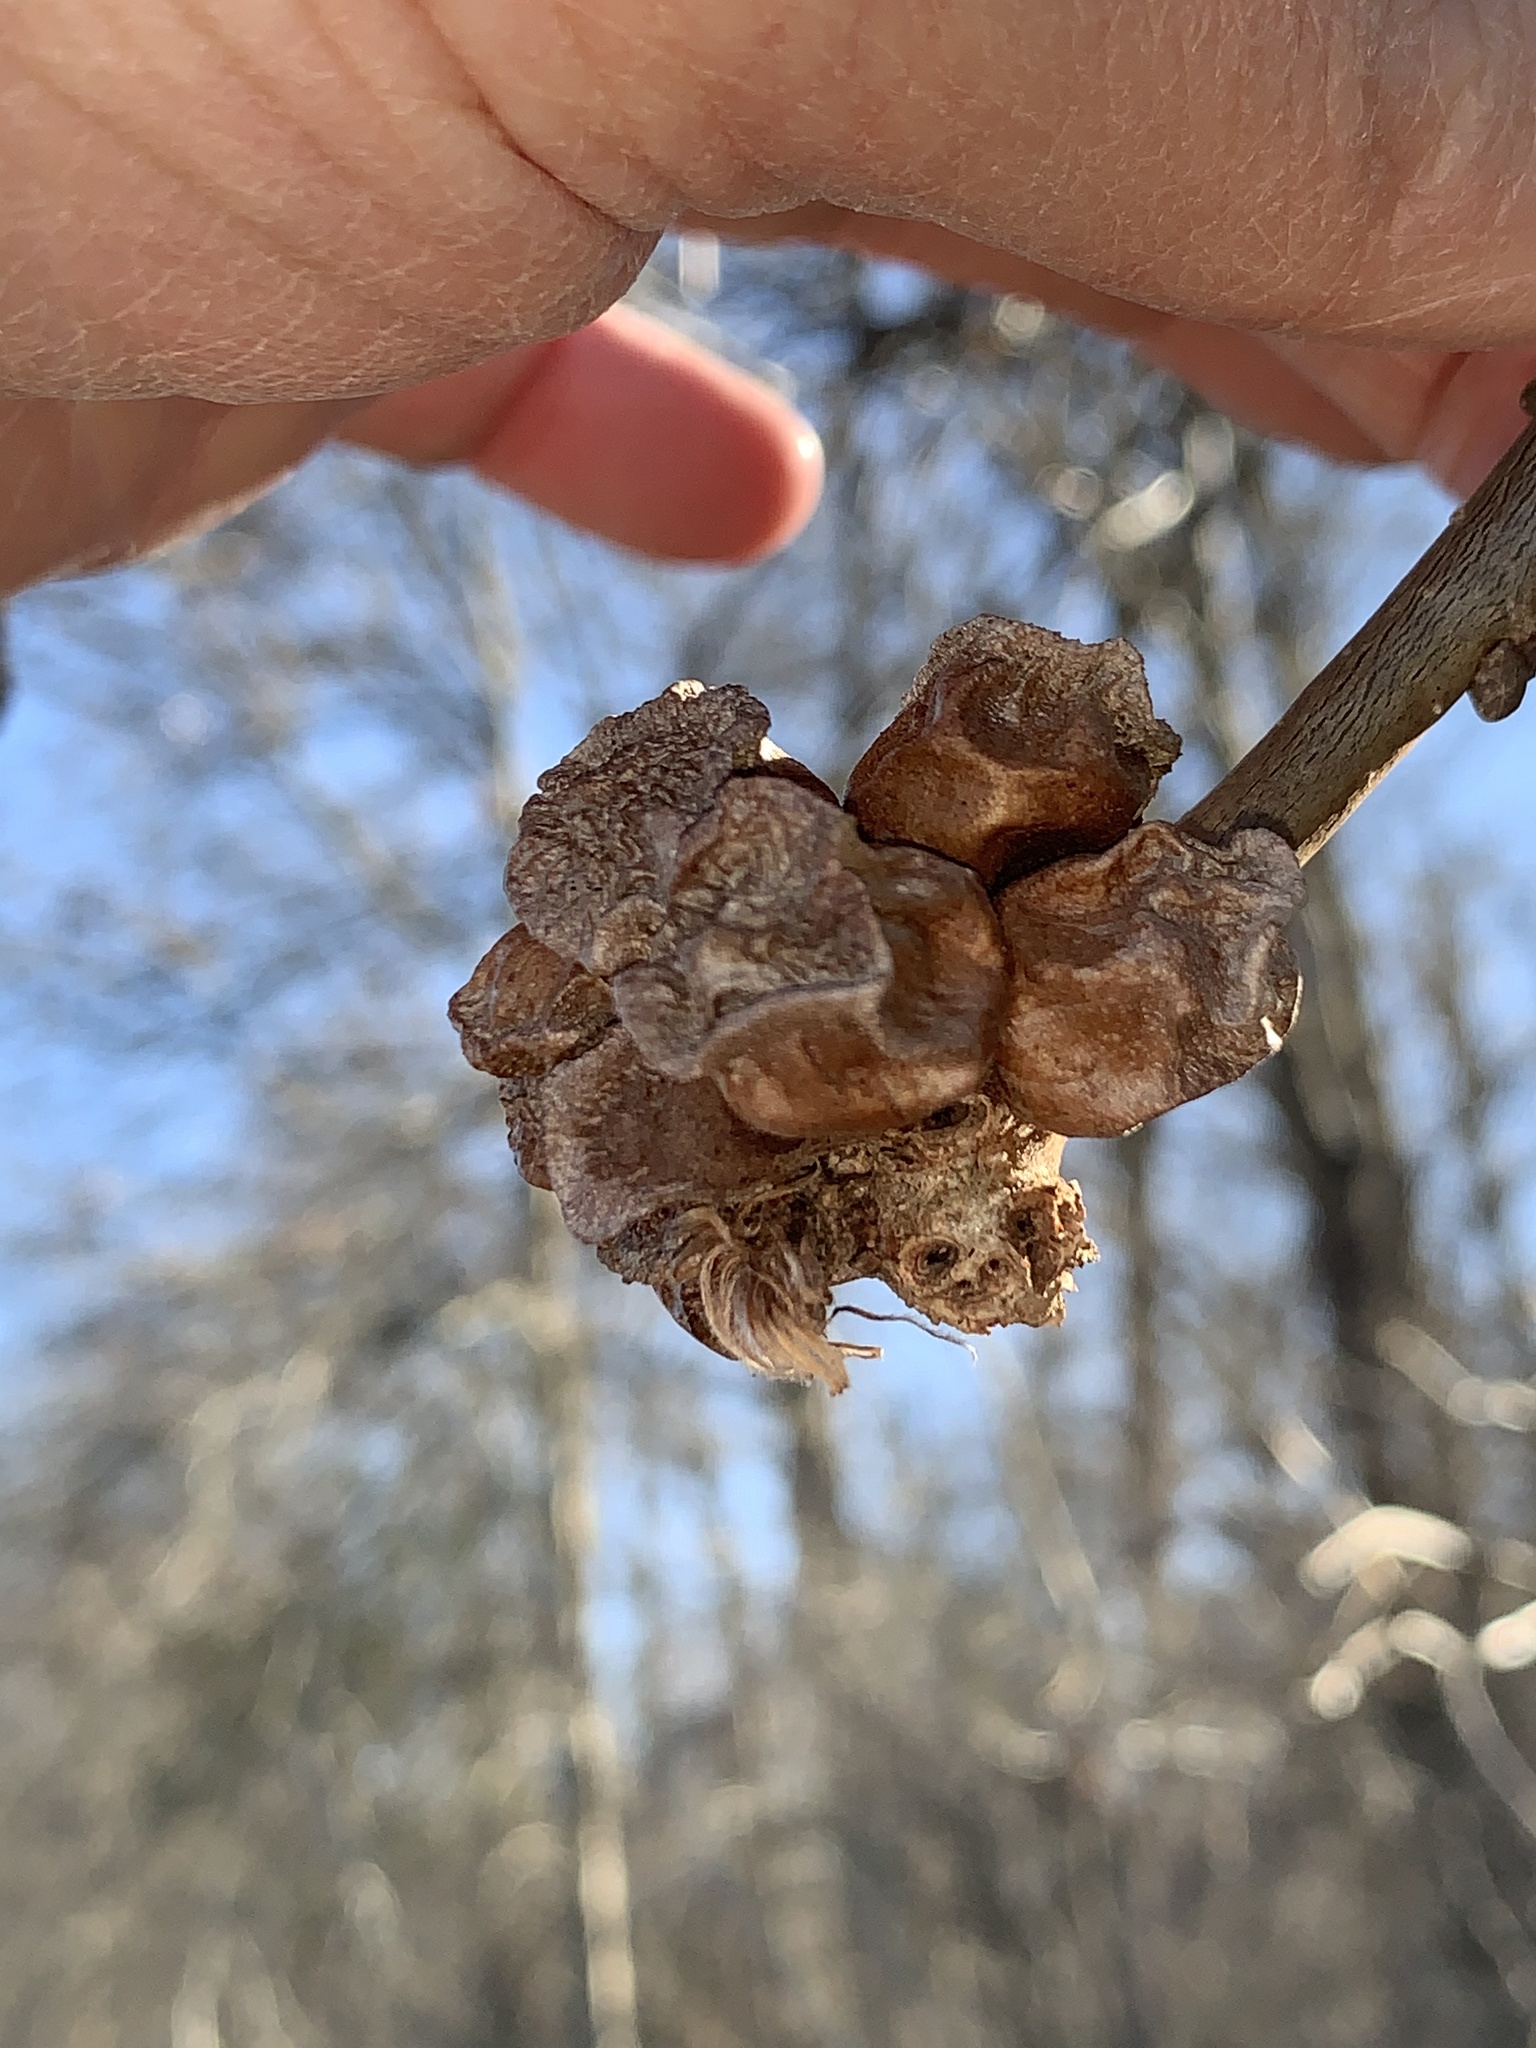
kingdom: Animalia
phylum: Arthropoda
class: Insecta
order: Hymenoptera
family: Cynipidae
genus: Andricus
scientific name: Andricus
